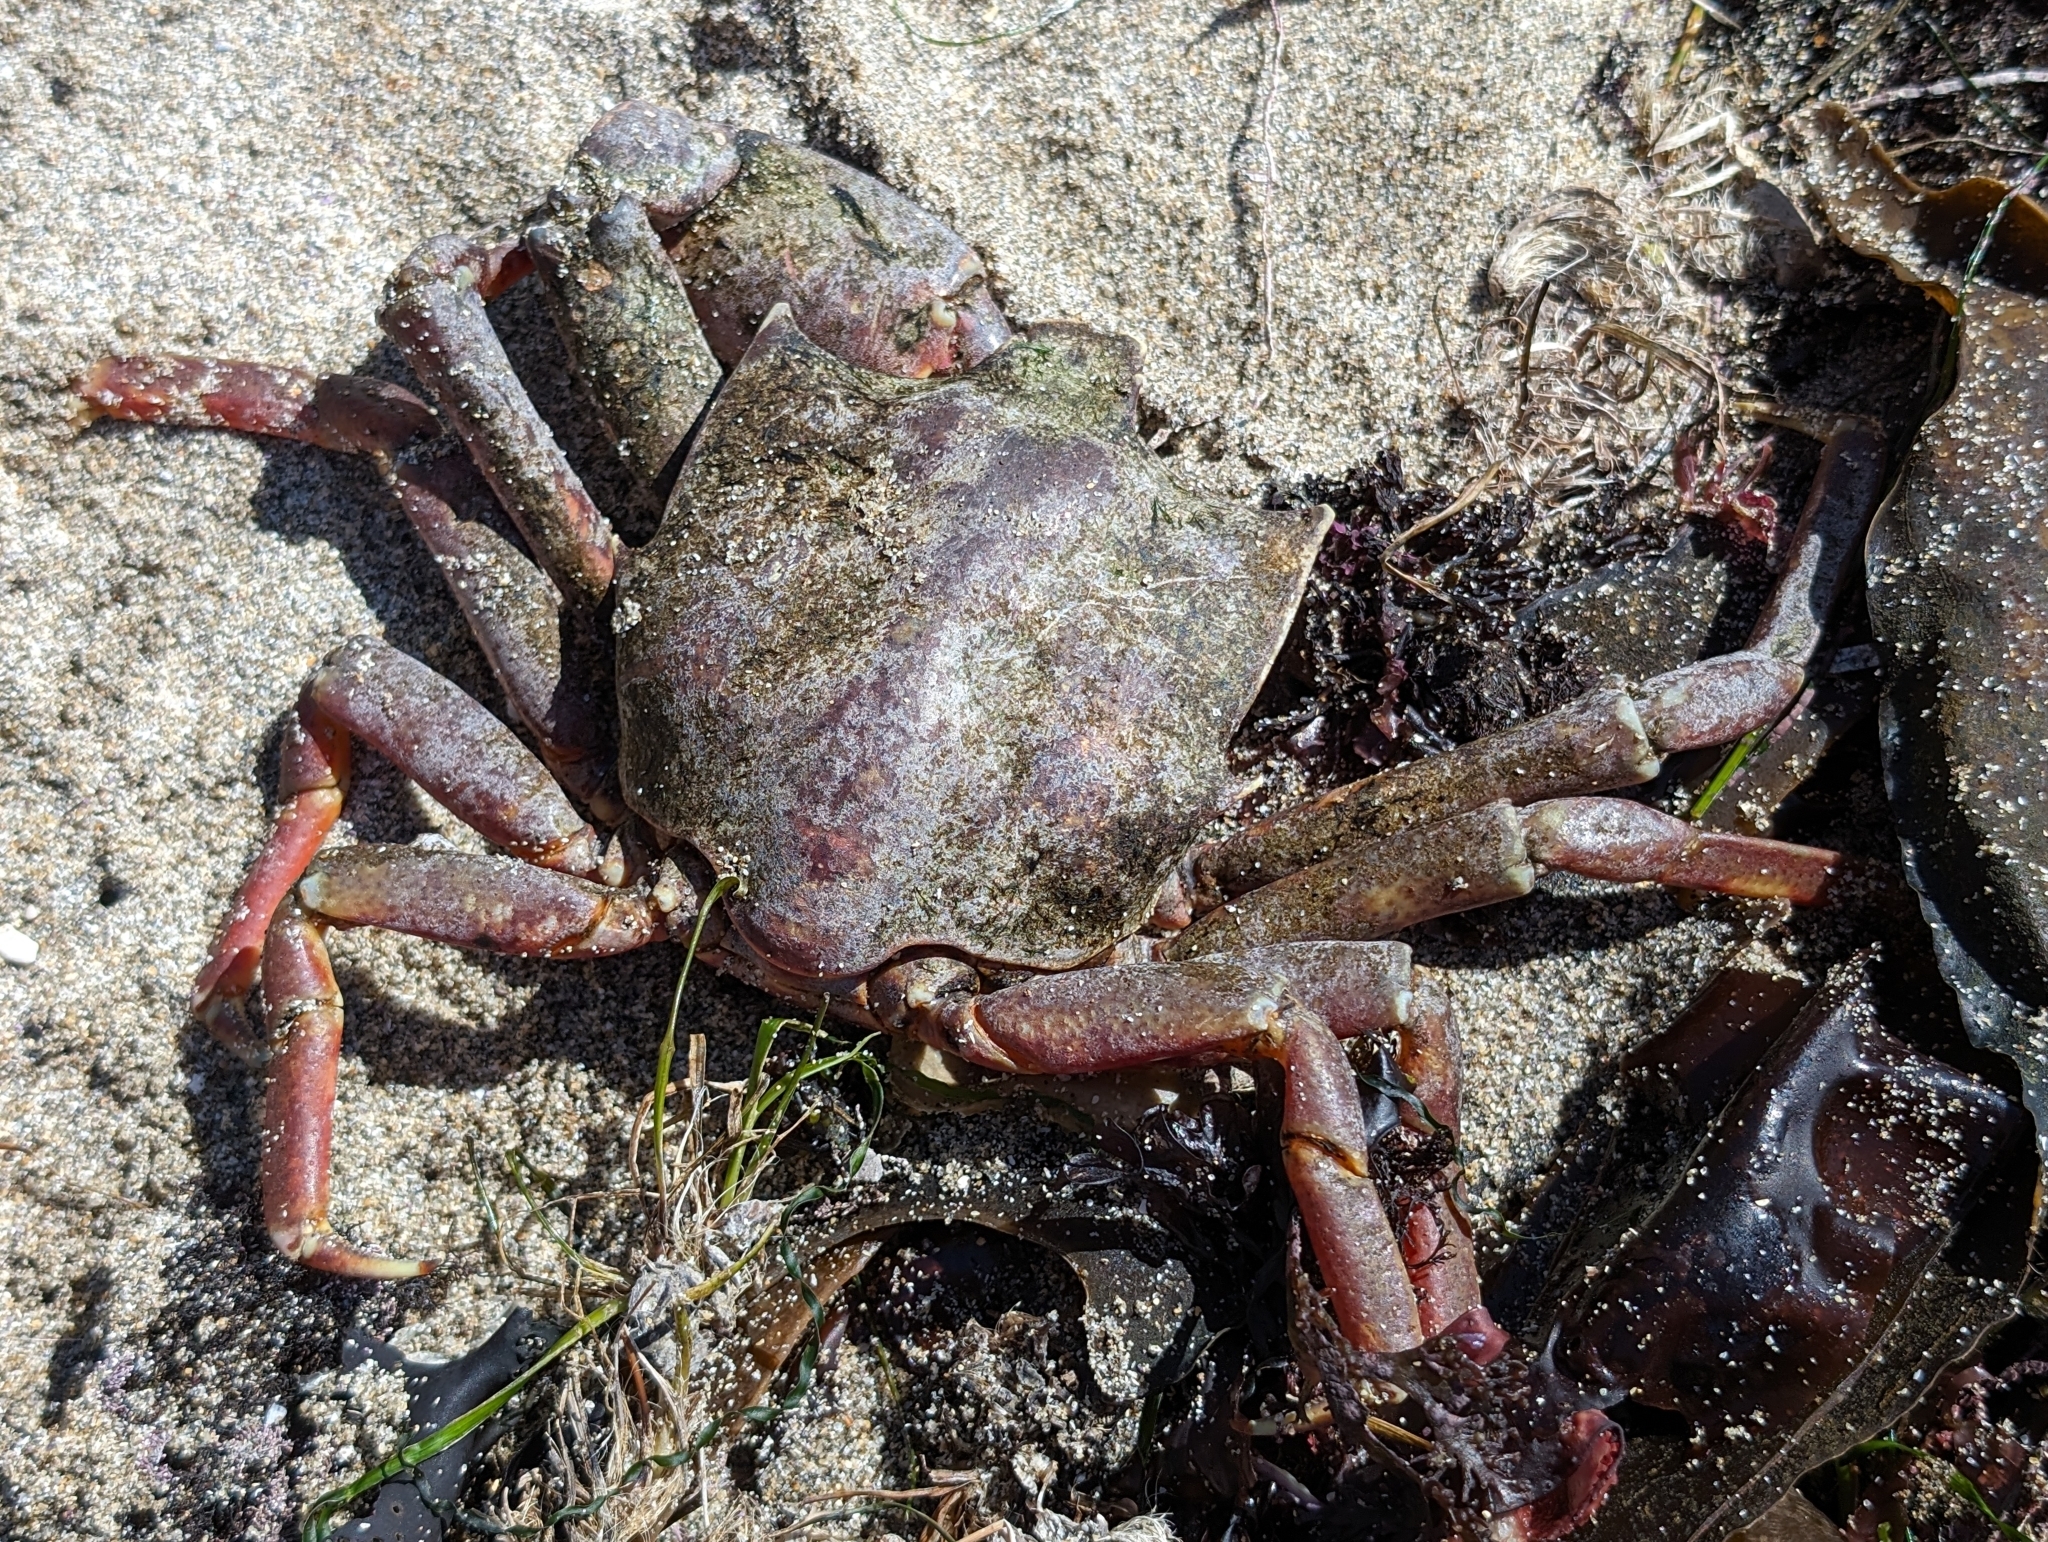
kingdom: Animalia
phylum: Arthropoda
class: Malacostraca
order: Decapoda
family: Epialtidae
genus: Pugettia
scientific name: Pugettia producta
